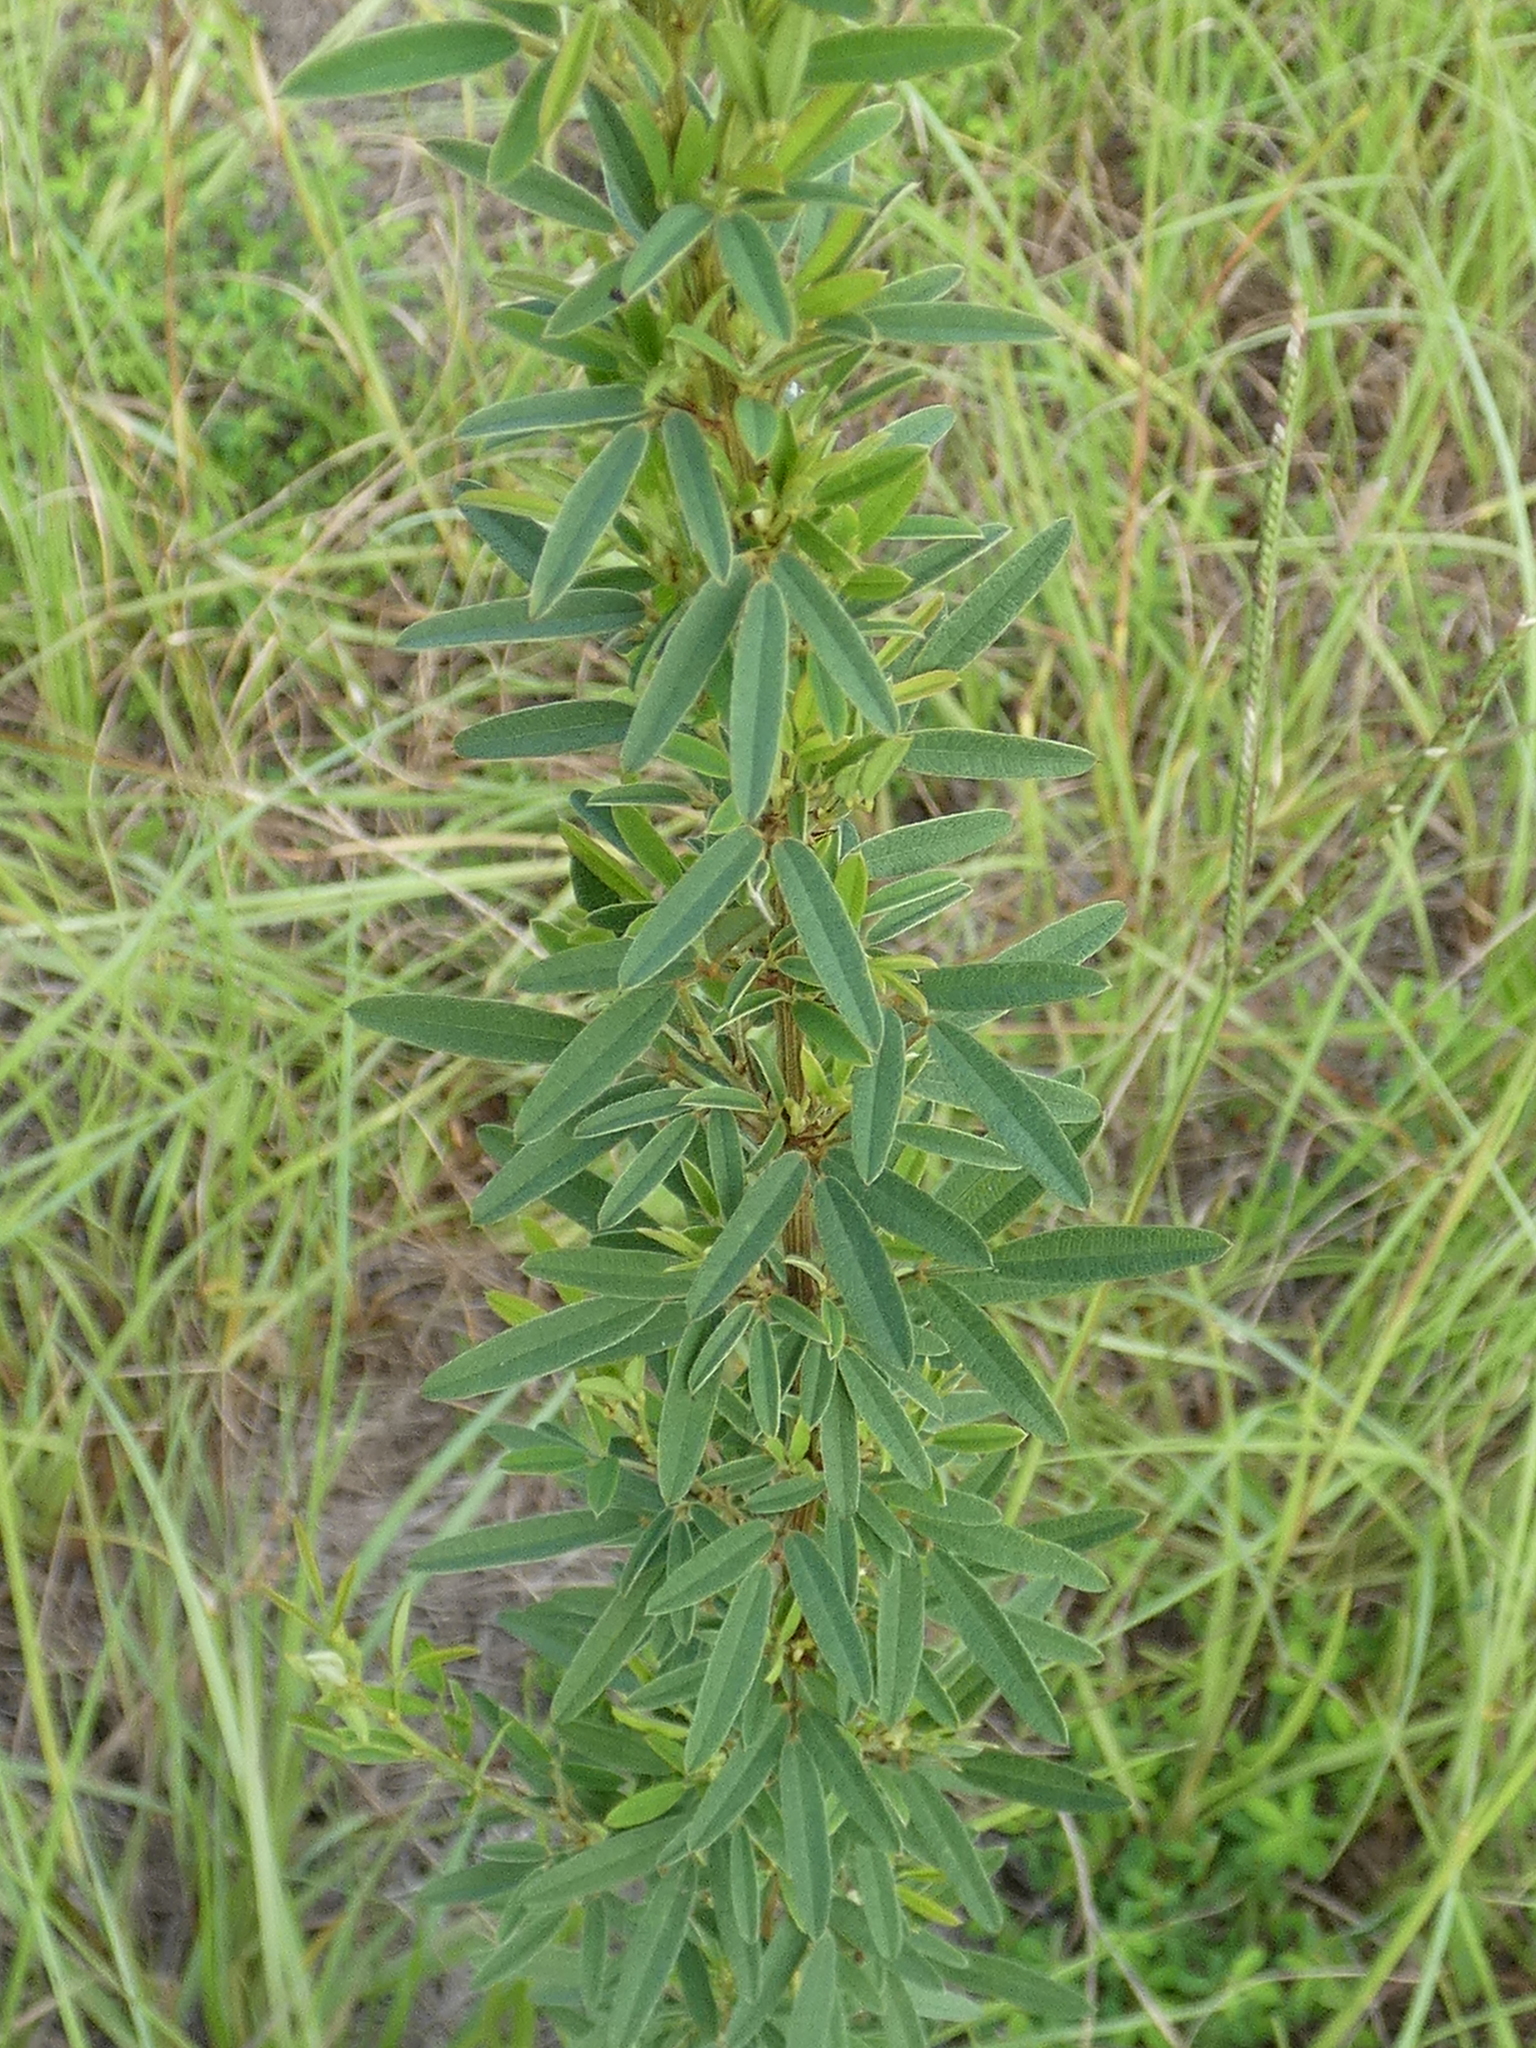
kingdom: Plantae
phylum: Tracheophyta
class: Magnoliopsida
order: Fabales
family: Fabaceae
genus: Lespedeza
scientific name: Lespedeza virginica
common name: Slender bush-clover
